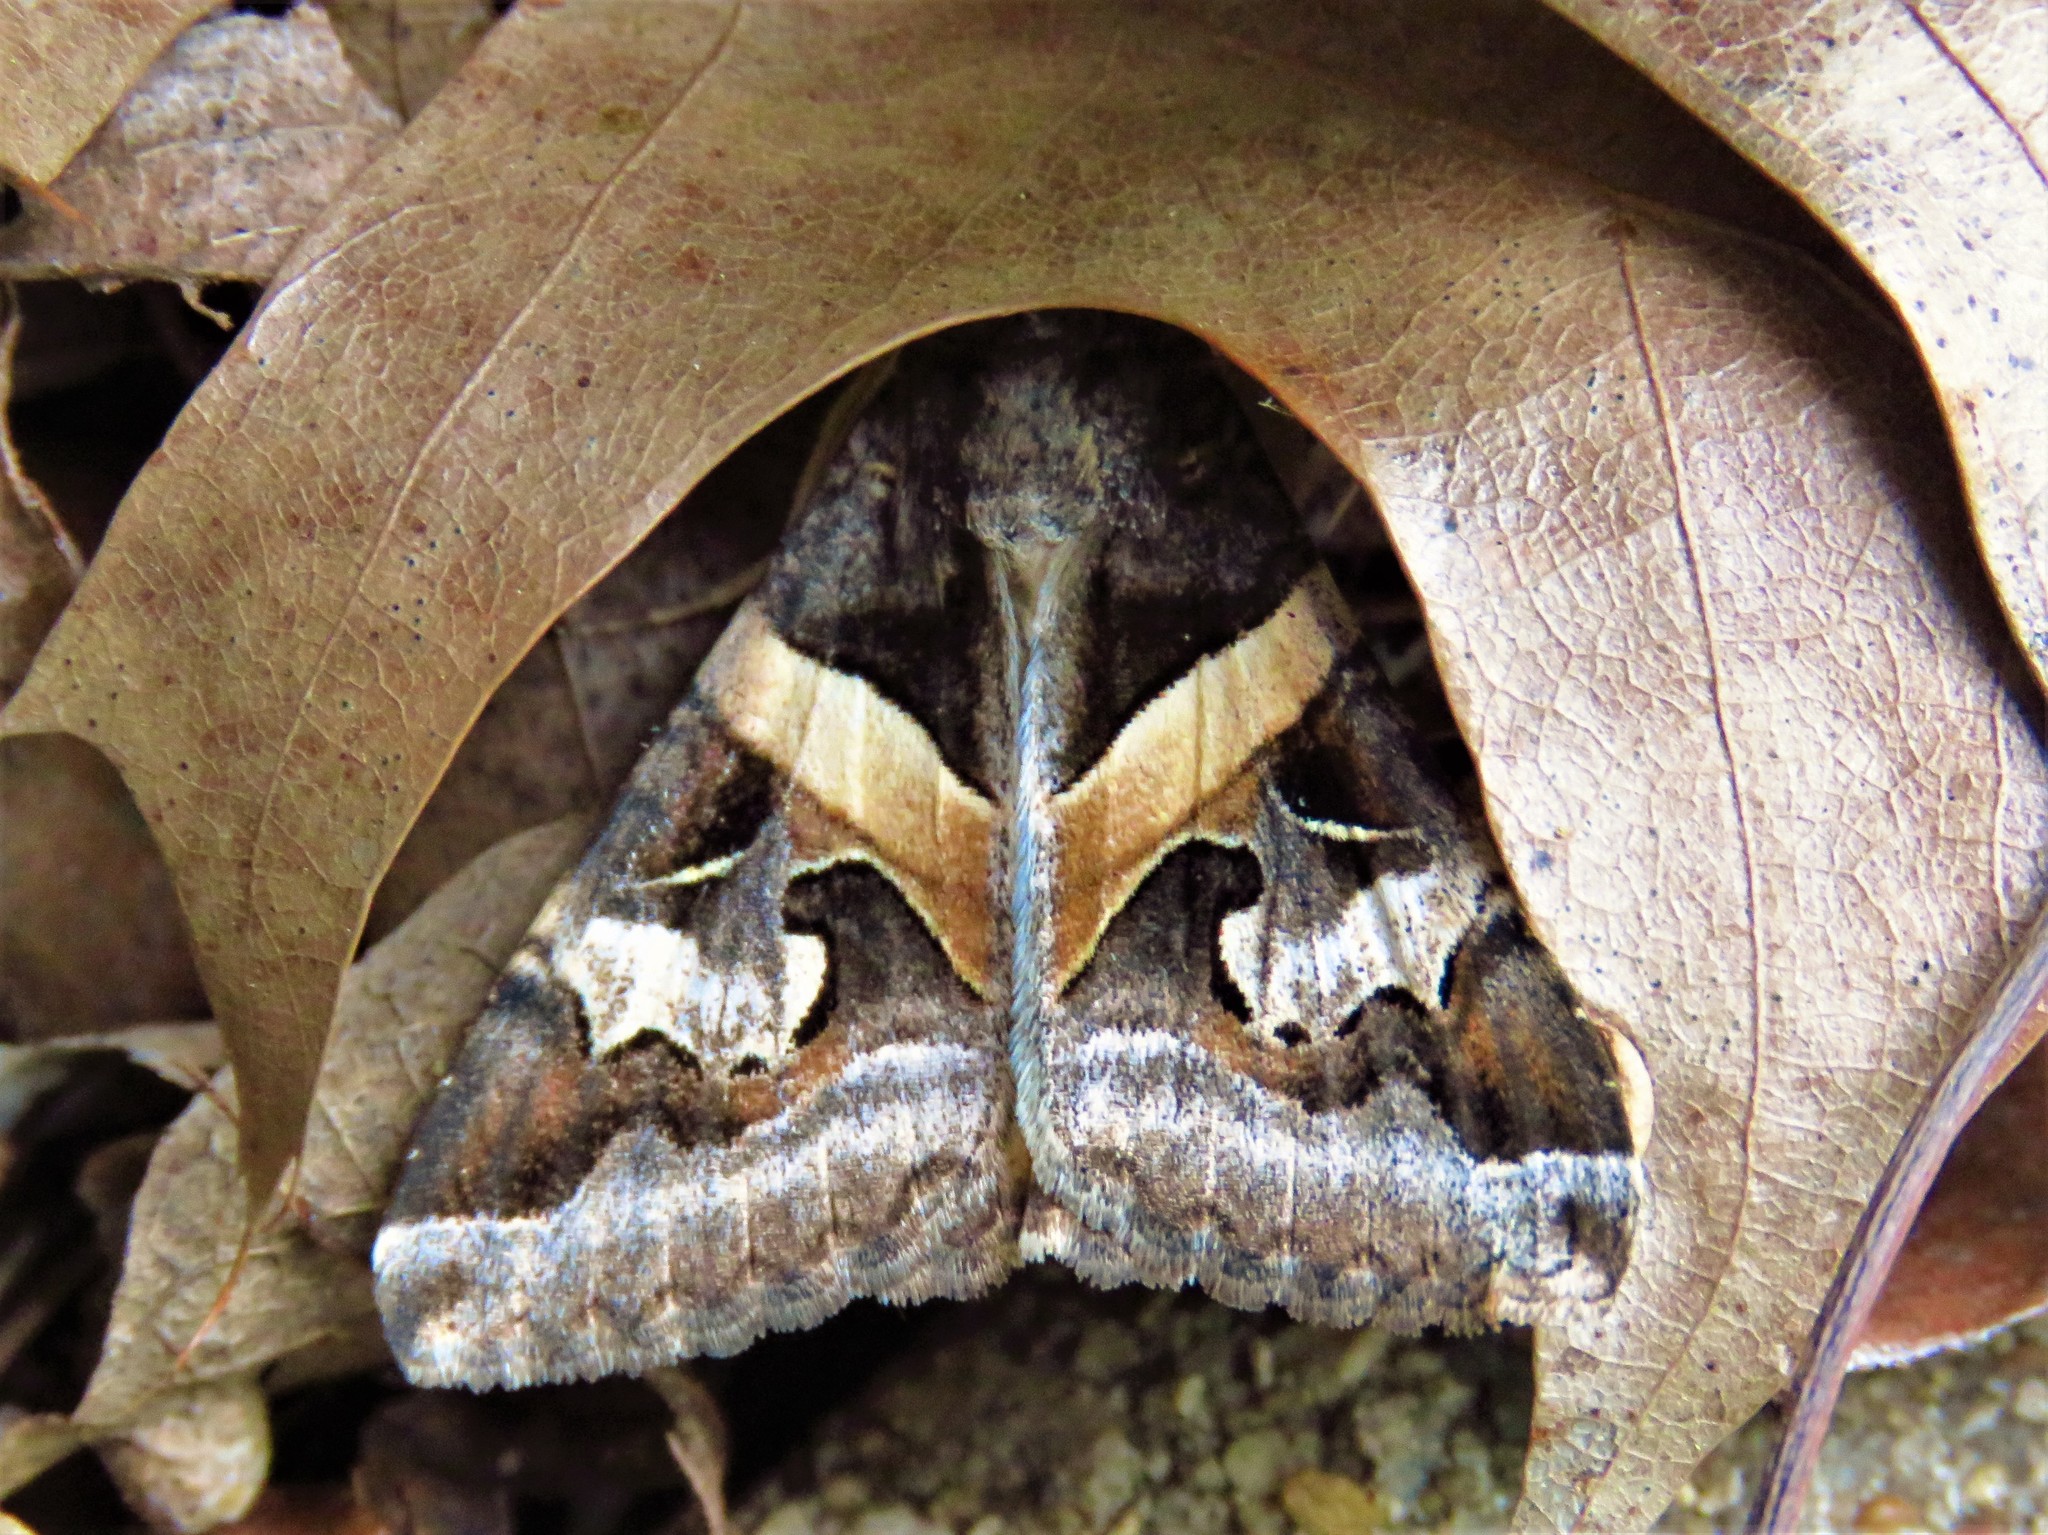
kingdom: Animalia
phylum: Arthropoda
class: Insecta
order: Lepidoptera
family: Erebidae
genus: Melipotis
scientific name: Melipotis indomita
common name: Moth
